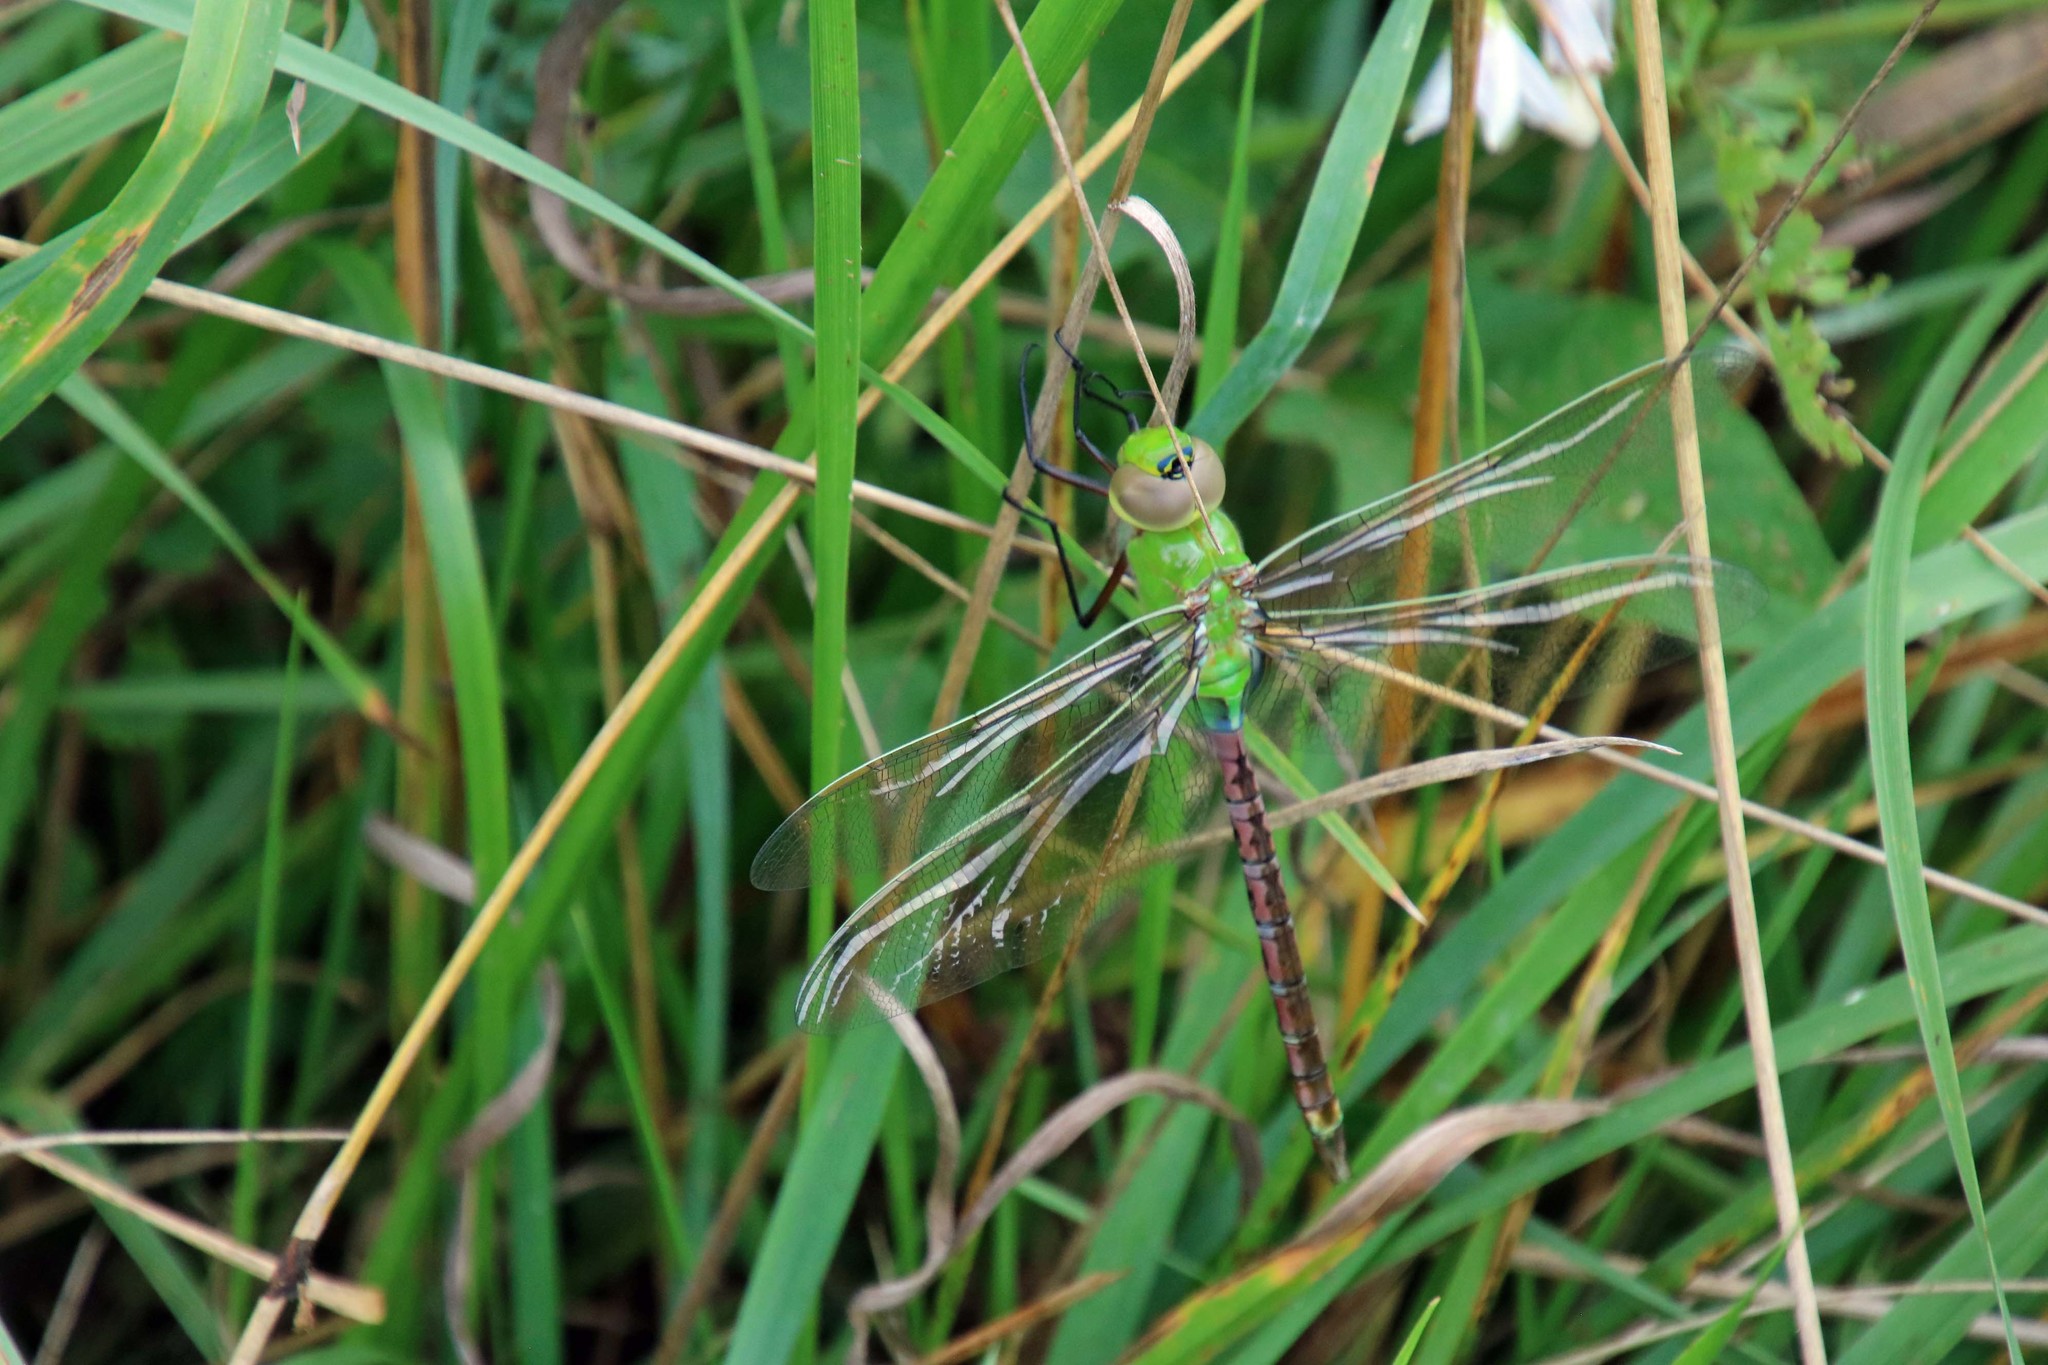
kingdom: Animalia
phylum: Arthropoda
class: Insecta
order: Odonata
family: Aeshnidae
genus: Anax
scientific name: Anax junius
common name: Common green darner
